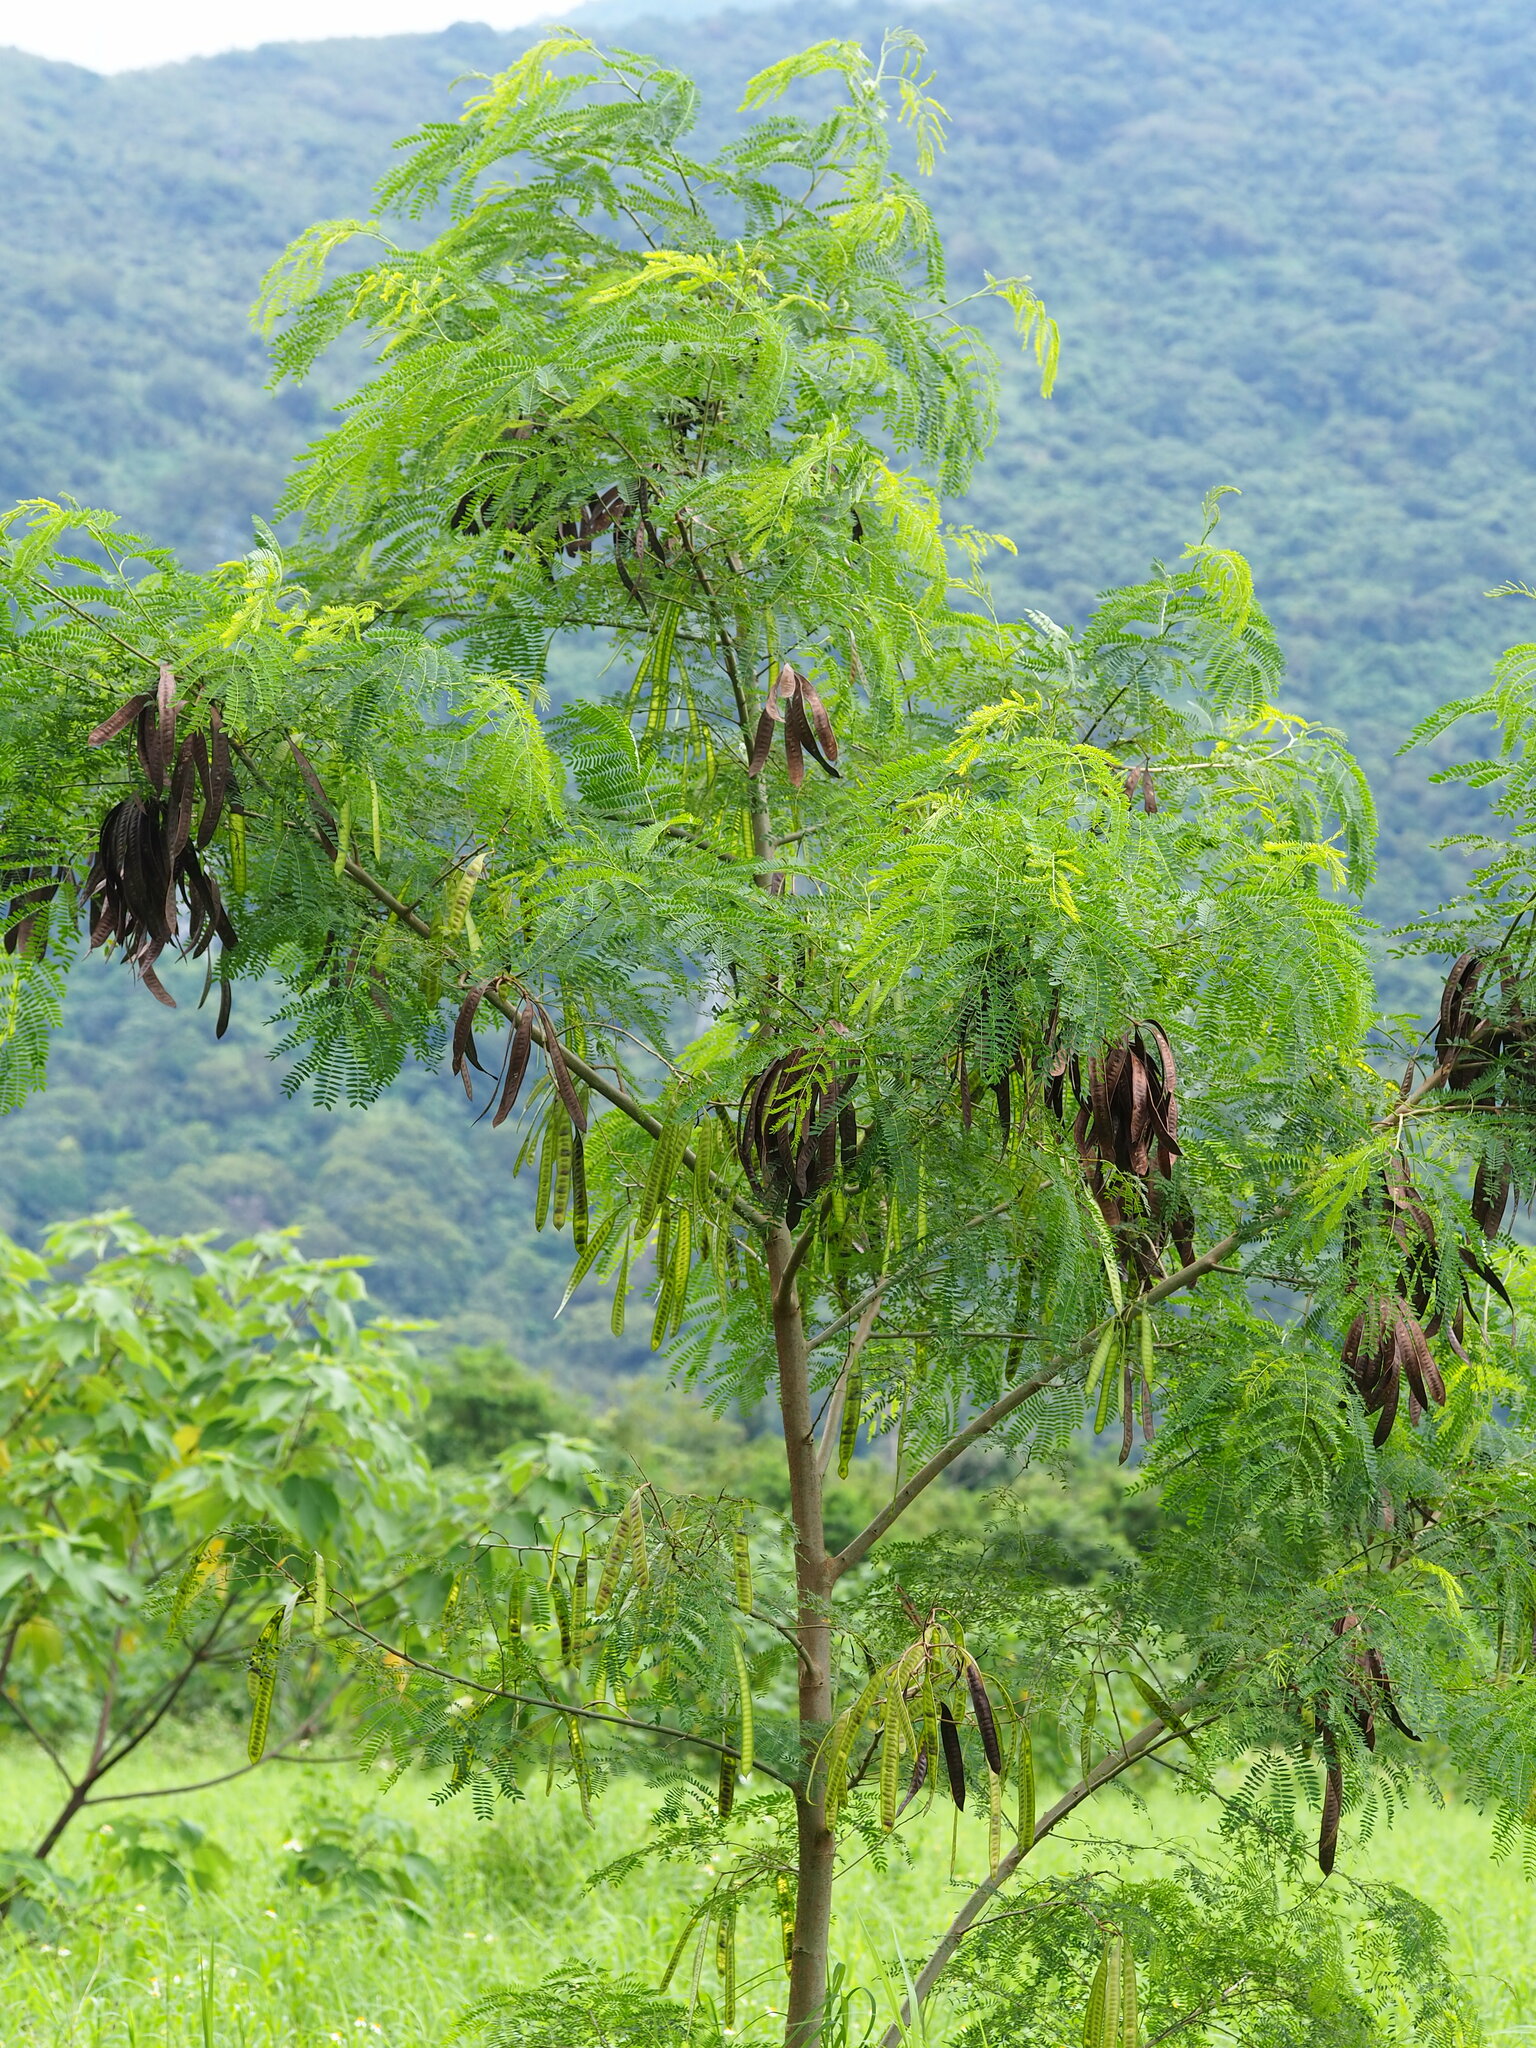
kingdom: Plantae
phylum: Tracheophyta
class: Magnoliopsida
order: Fabales
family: Fabaceae
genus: Leucaena
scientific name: Leucaena leucocephala
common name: White leadtree
